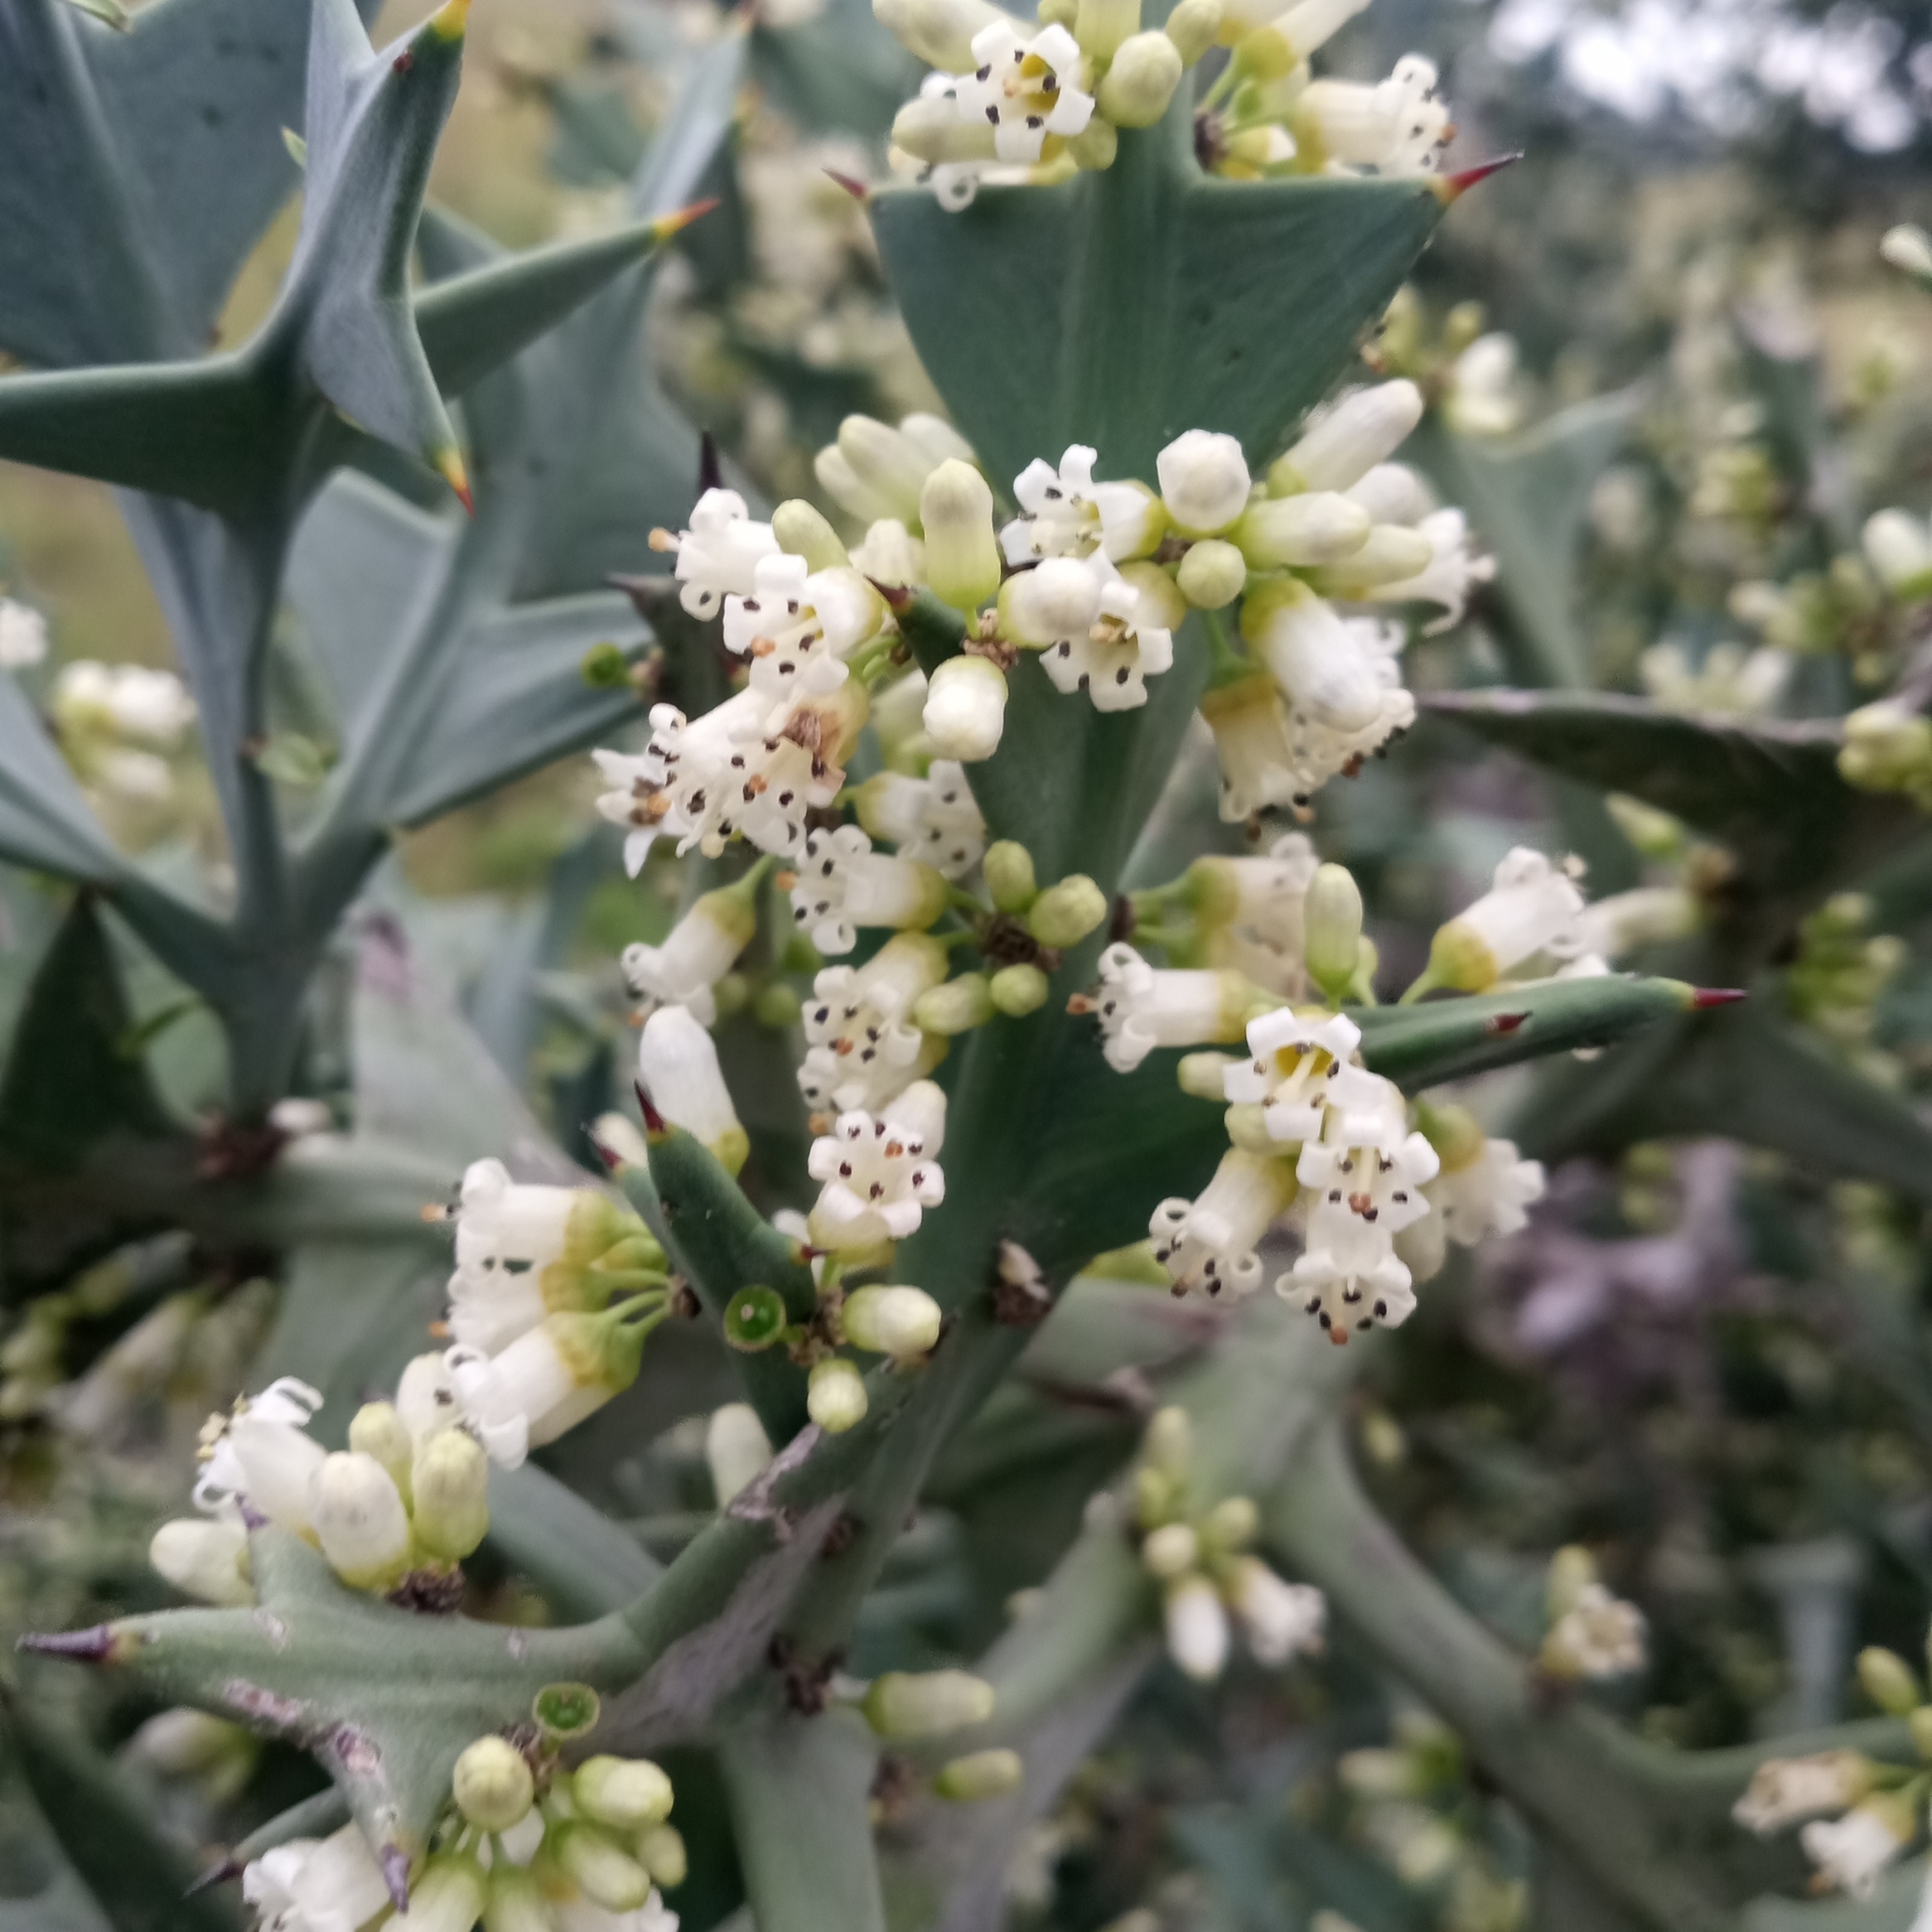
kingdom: Plantae
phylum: Tracheophyta
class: Magnoliopsida
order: Rosales
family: Rhamnaceae
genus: Colletia
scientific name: Colletia paradoxa
